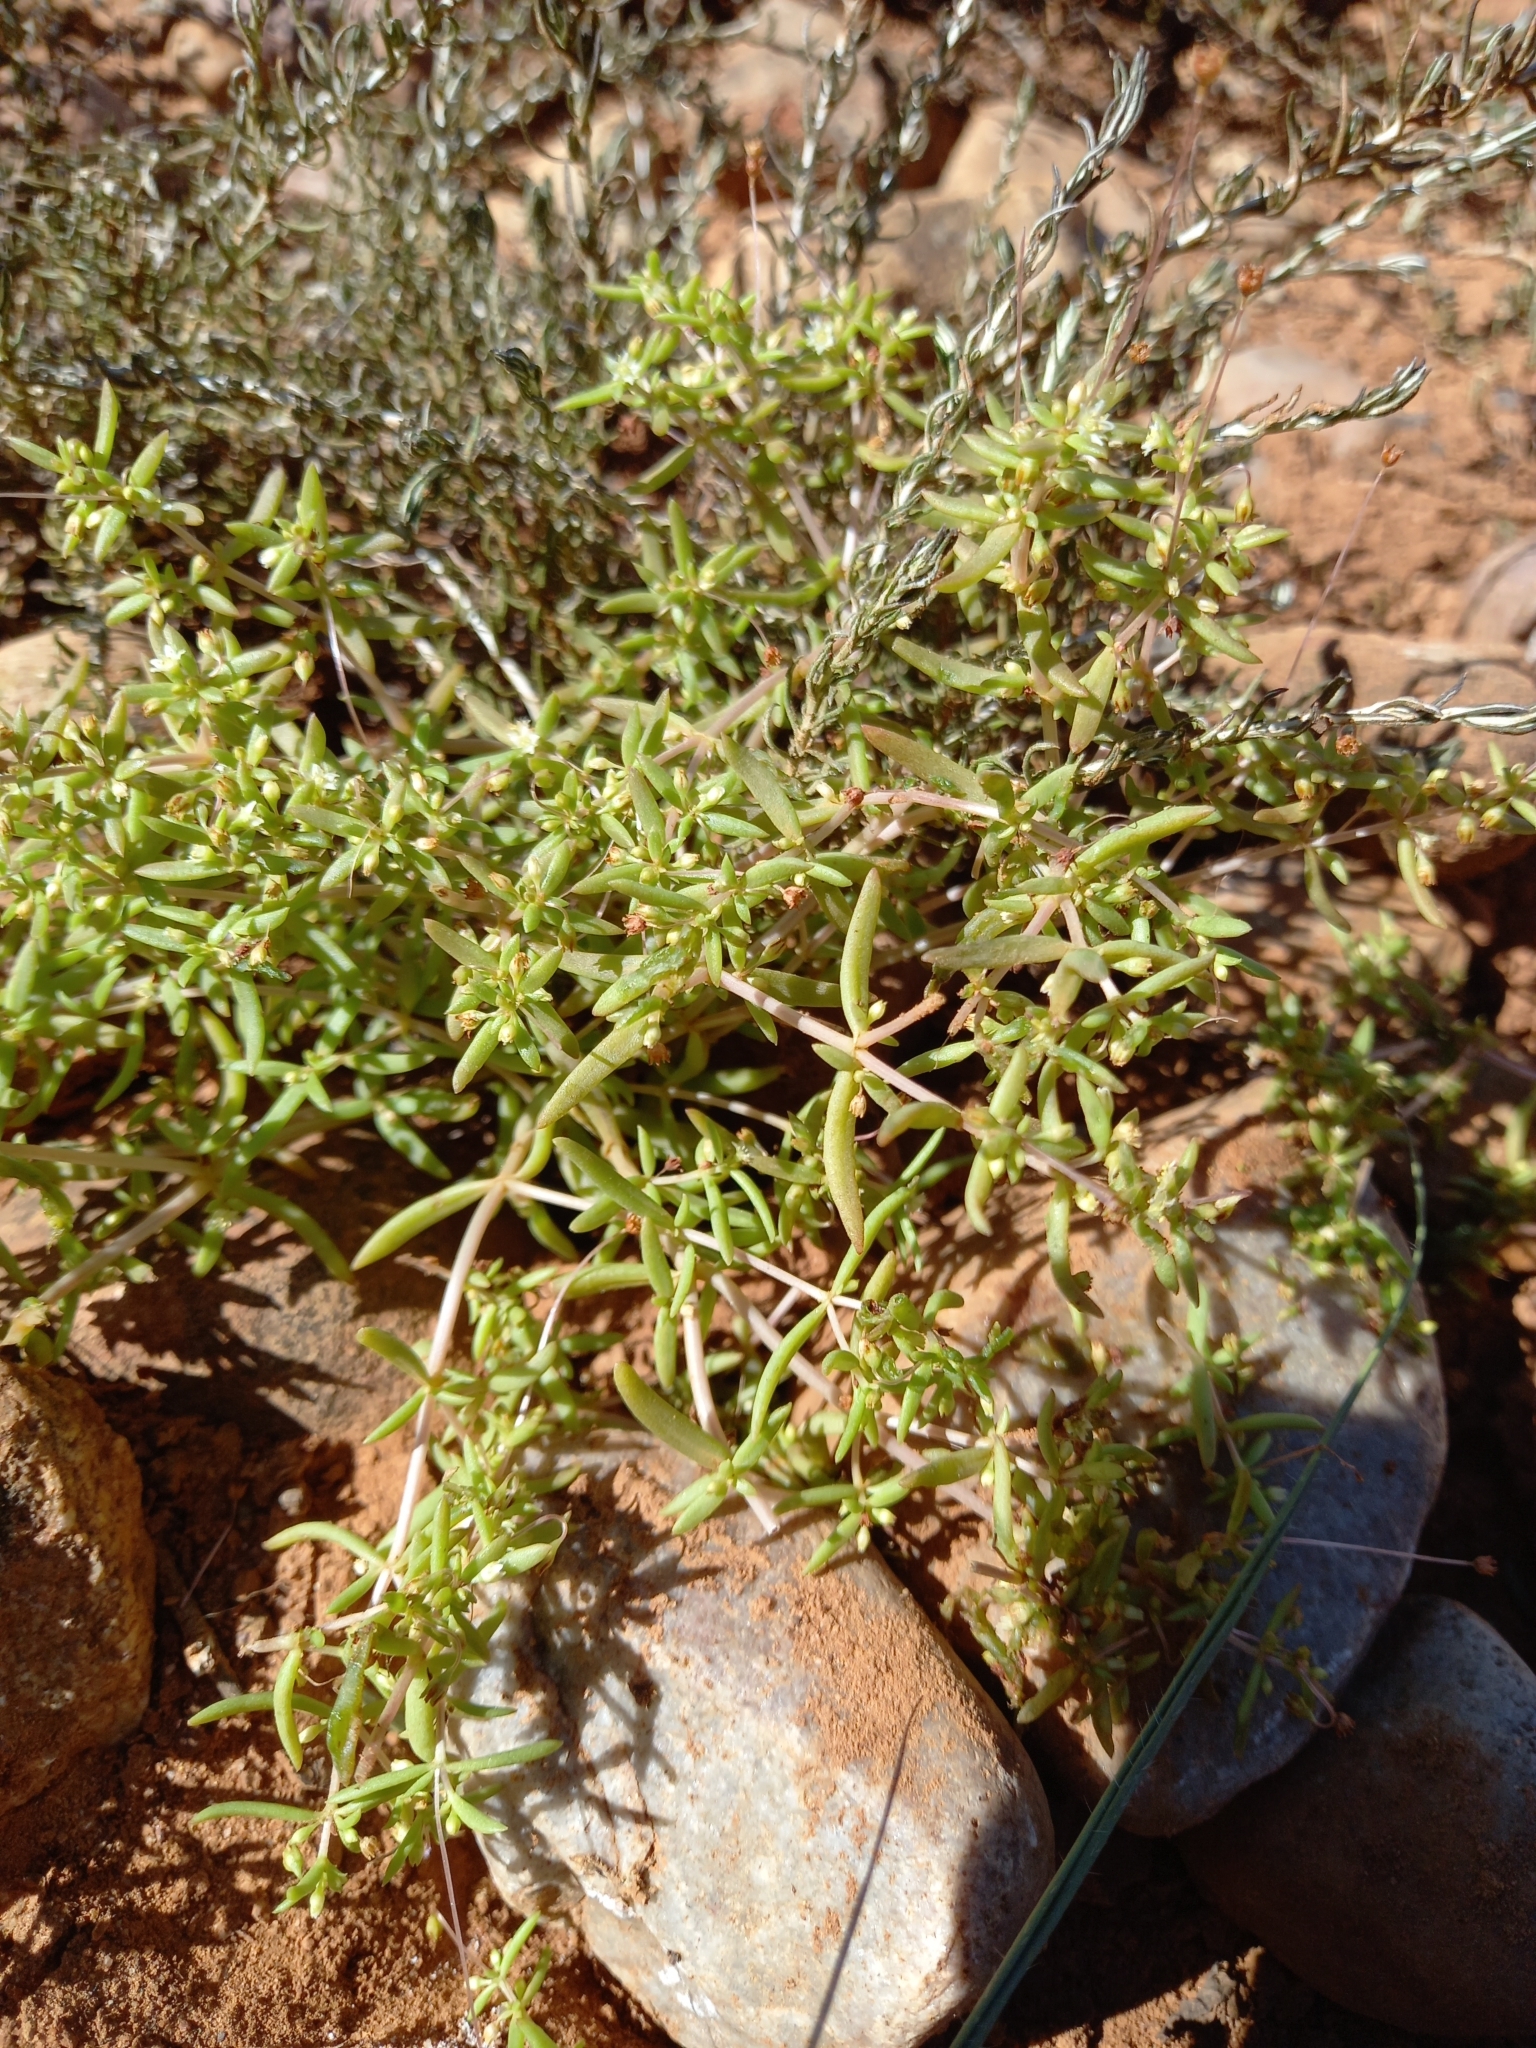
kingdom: Plantae
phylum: Tracheophyta
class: Magnoliopsida
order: Saxifragales
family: Crassulaceae
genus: Crassula
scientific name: Crassula expansa
